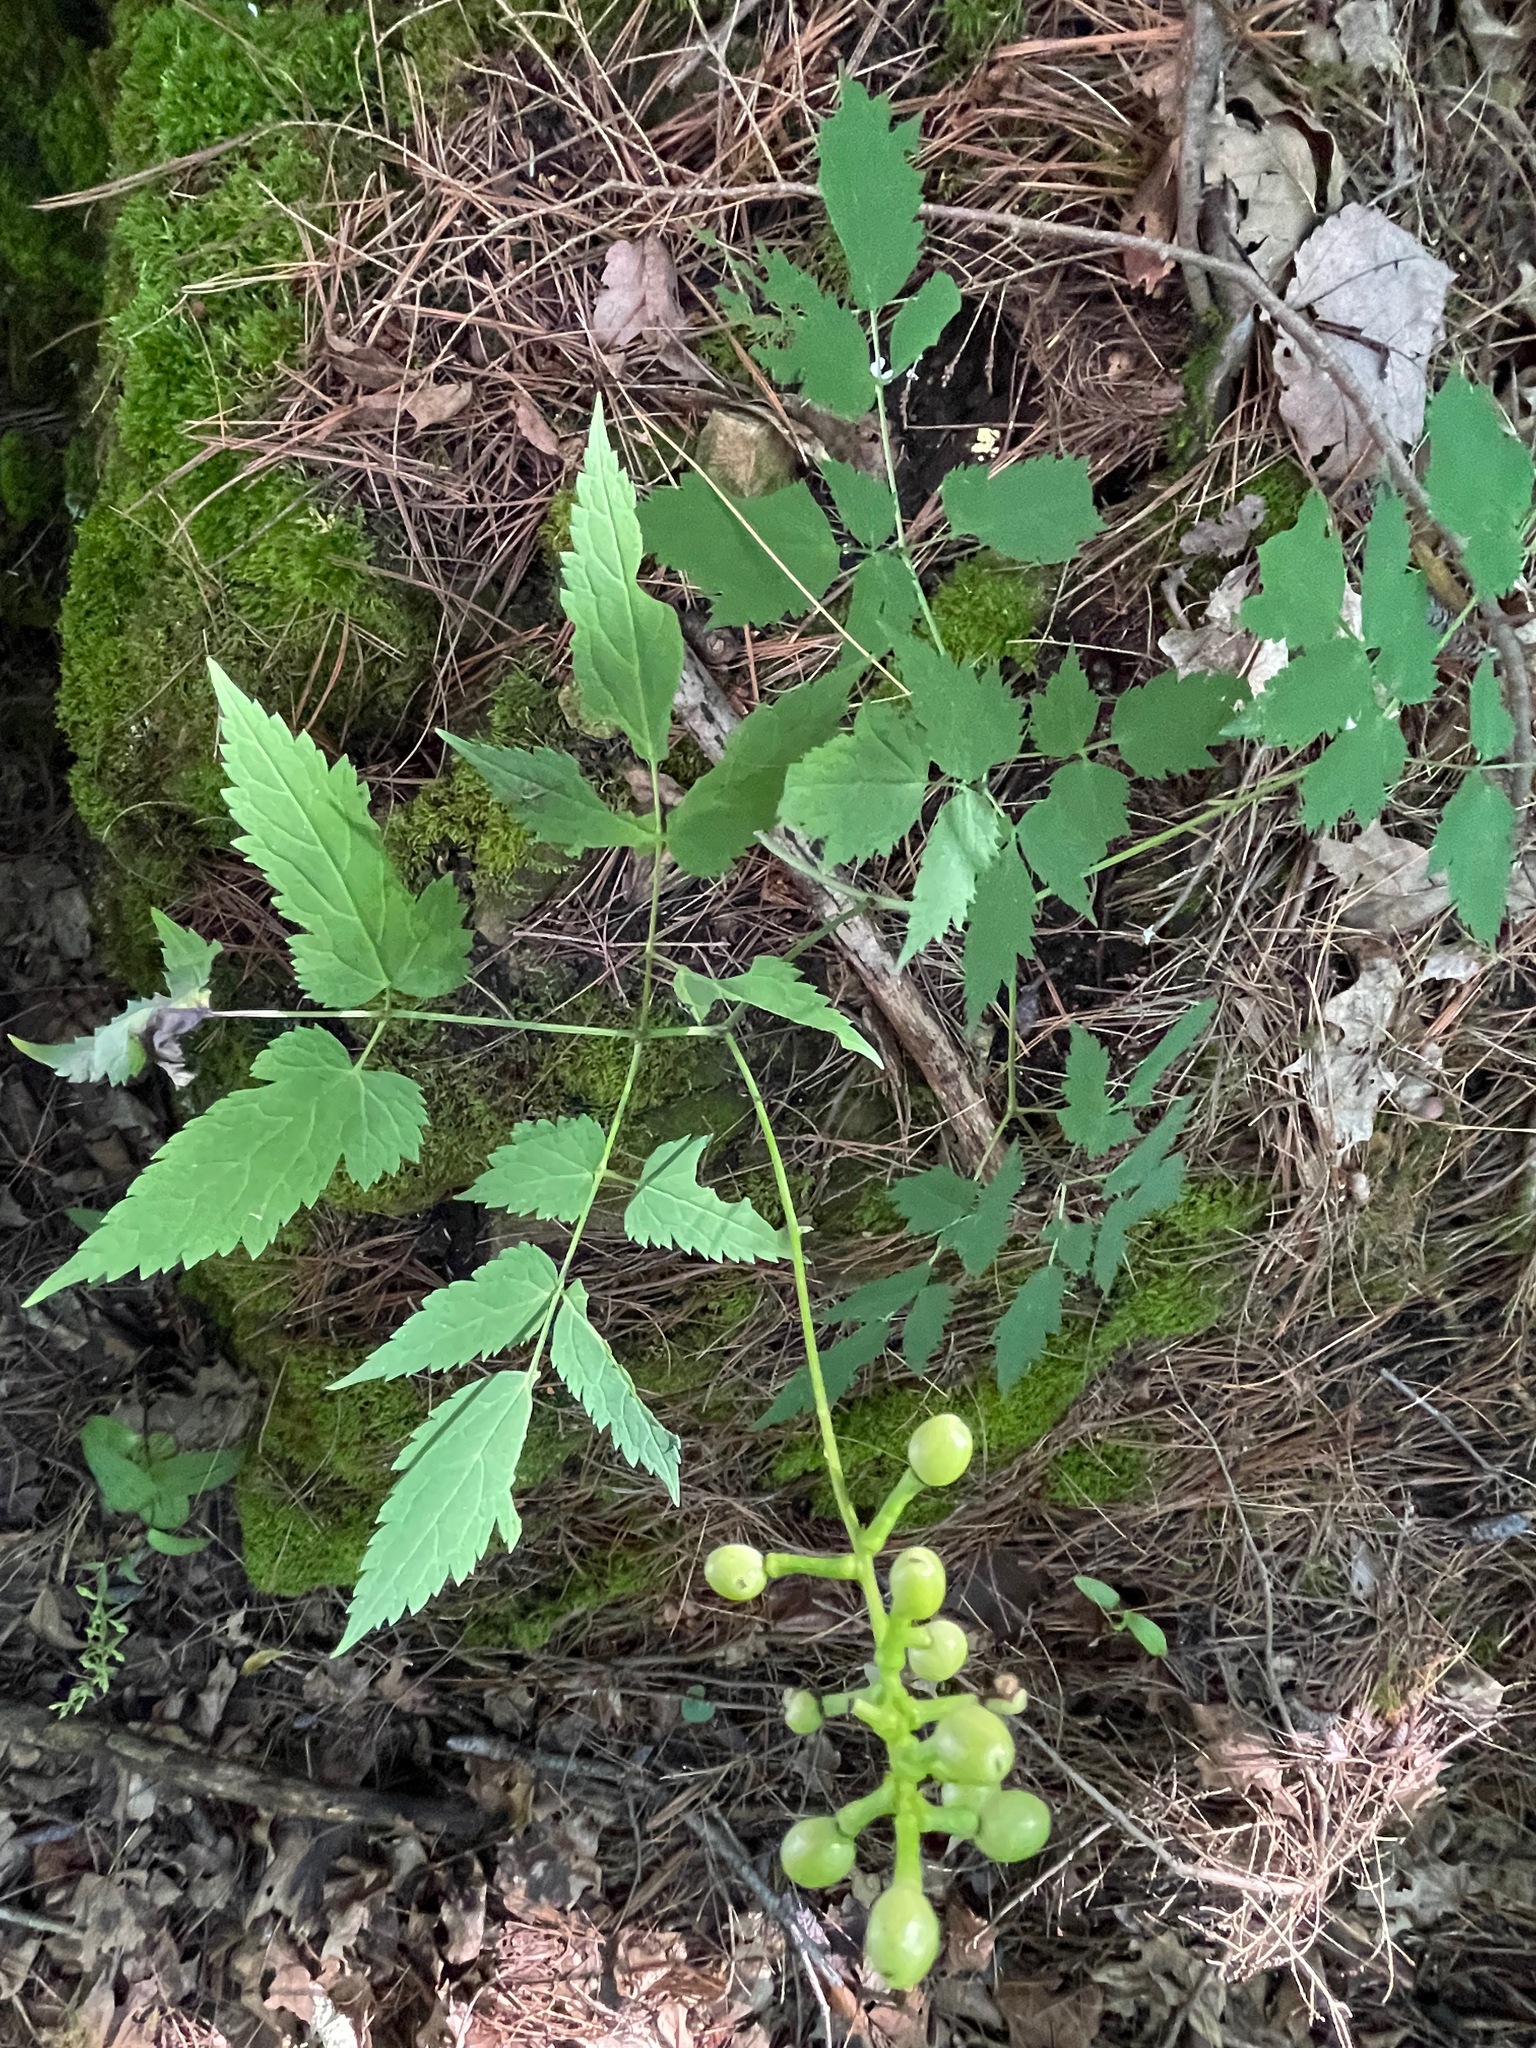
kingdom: Plantae
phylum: Tracheophyta
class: Magnoliopsida
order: Ranunculales
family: Ranunculaceae
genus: Actaea
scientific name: Actaea pachypoda
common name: Doll's-eyes
